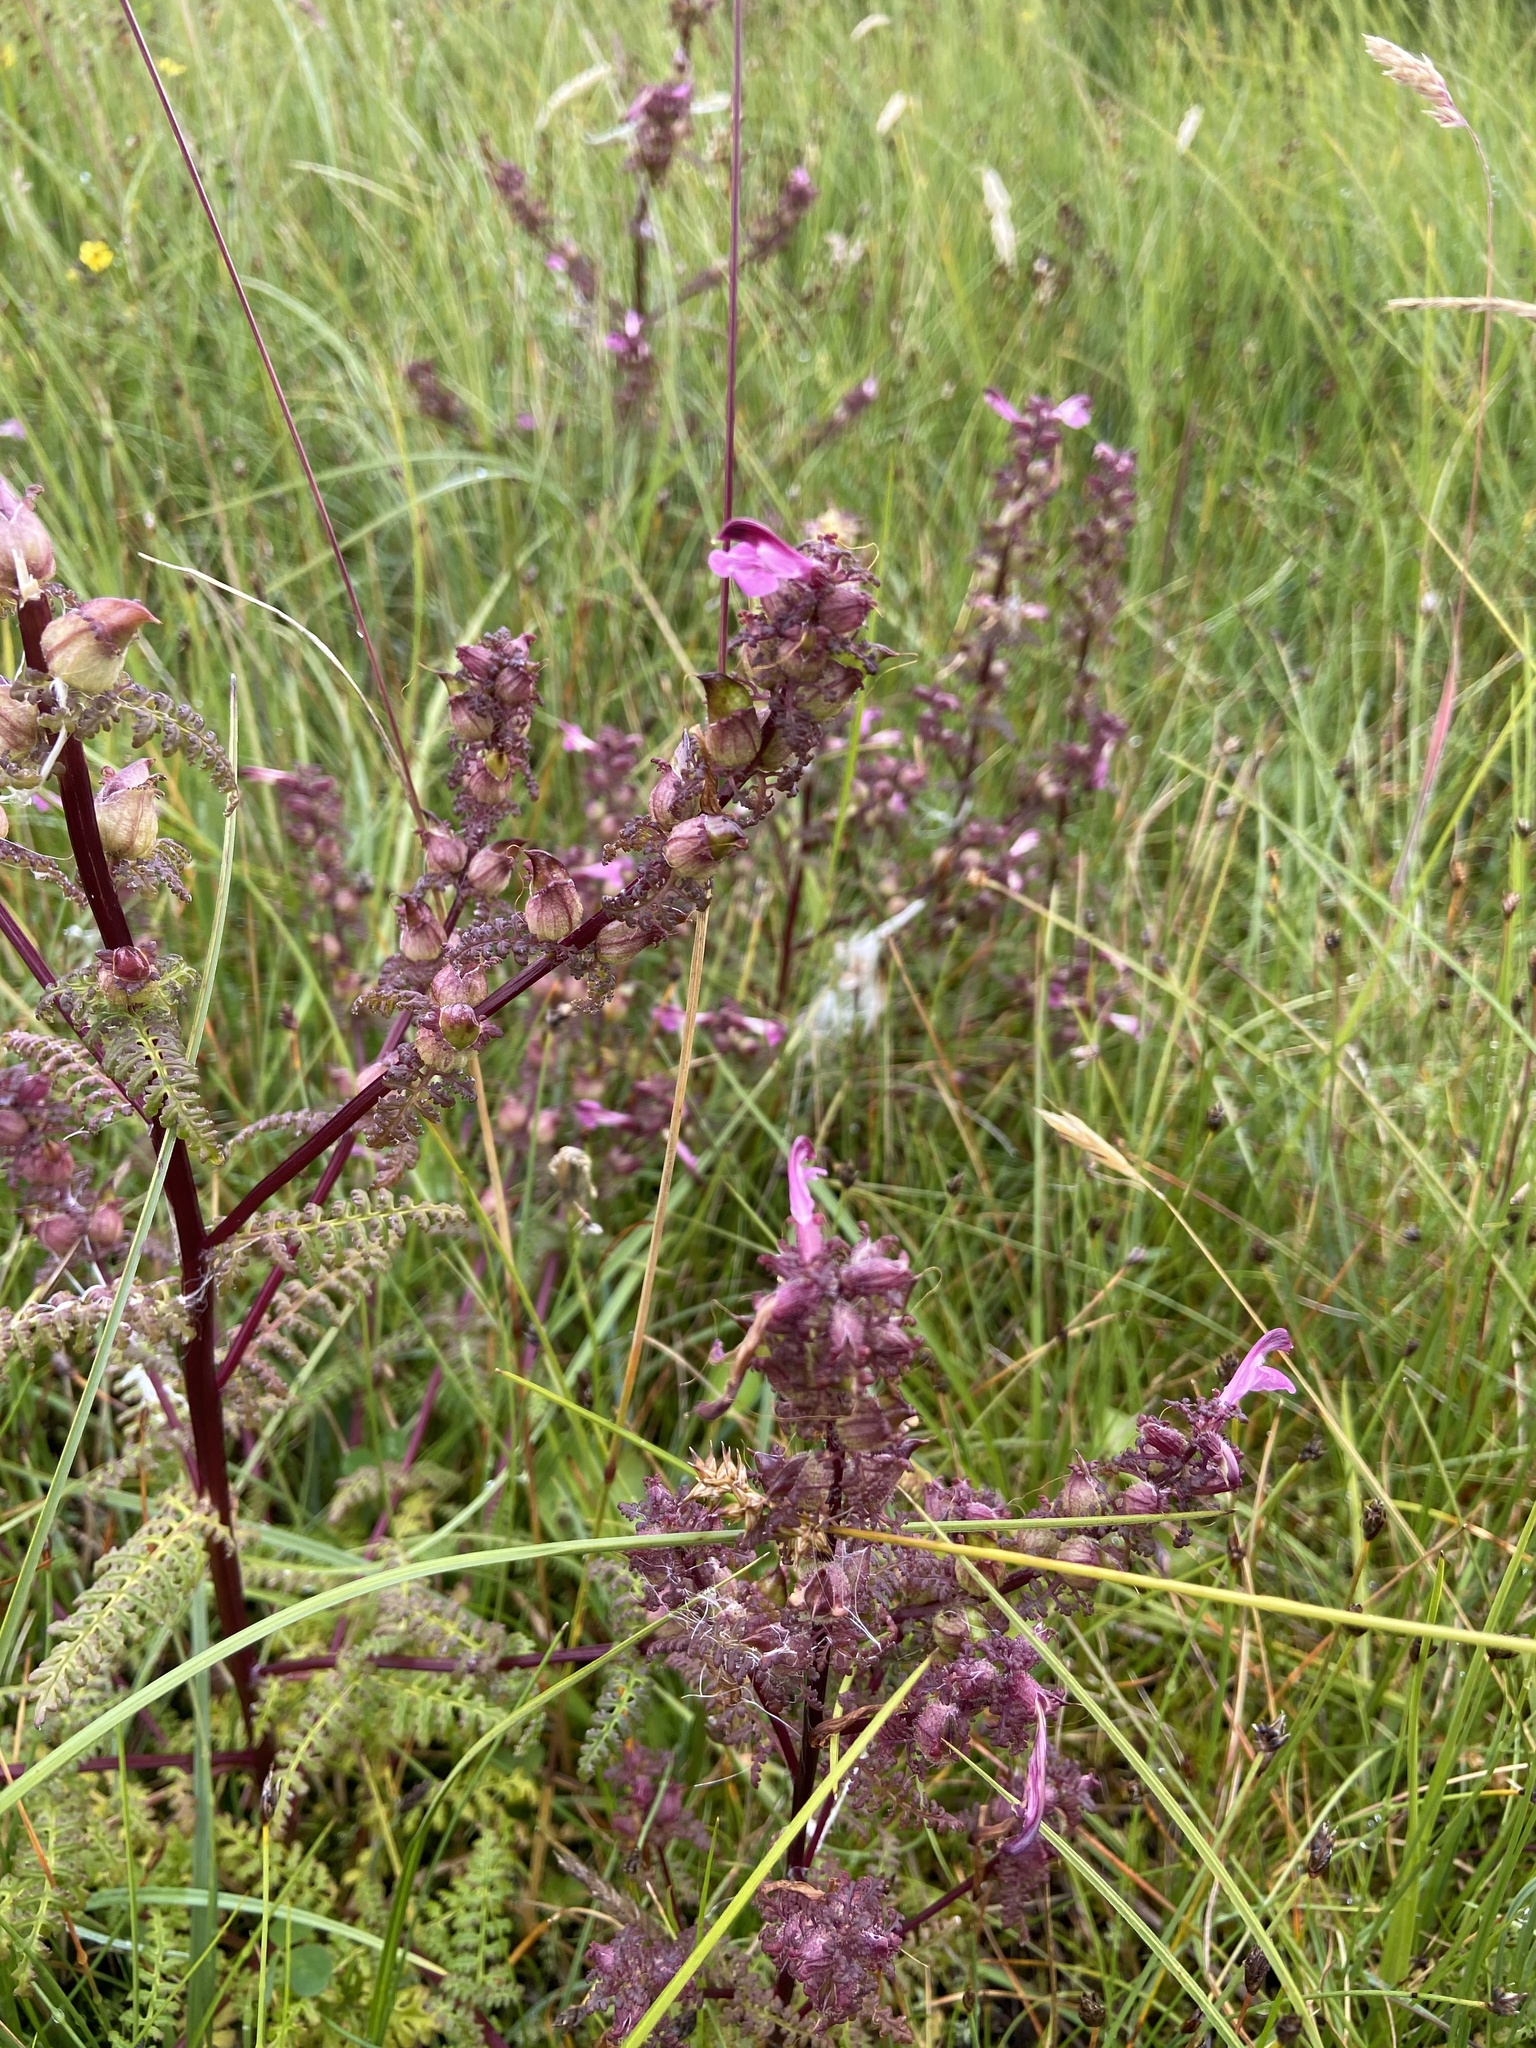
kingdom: Plantae
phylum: Tracheophyta
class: Magnoliopsida
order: Lamiales
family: Orobanchaceae
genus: Pedicularis
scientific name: Pedicularis palustris
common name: Marsh lousewort
